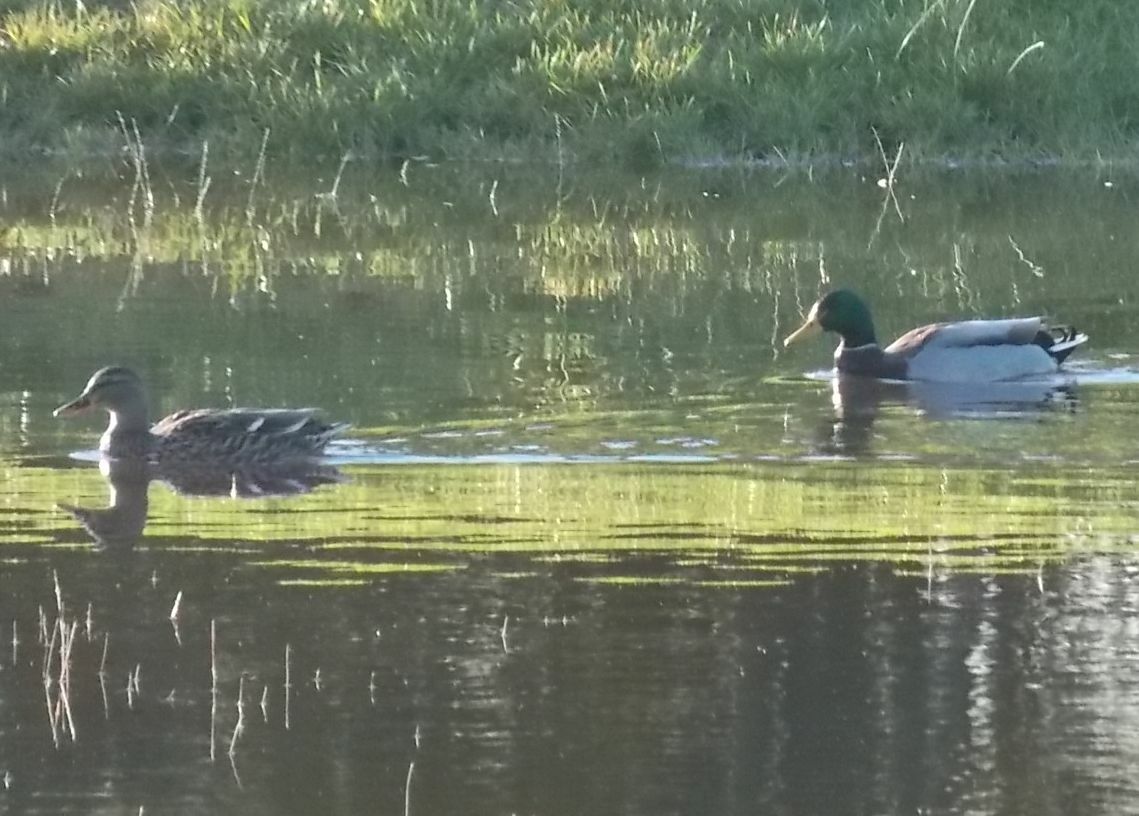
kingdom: Animalia
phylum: Chordata
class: Aves
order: Anseriformes
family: Anatidae
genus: Anas
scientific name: Anas platyrhynchos
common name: Mallard
